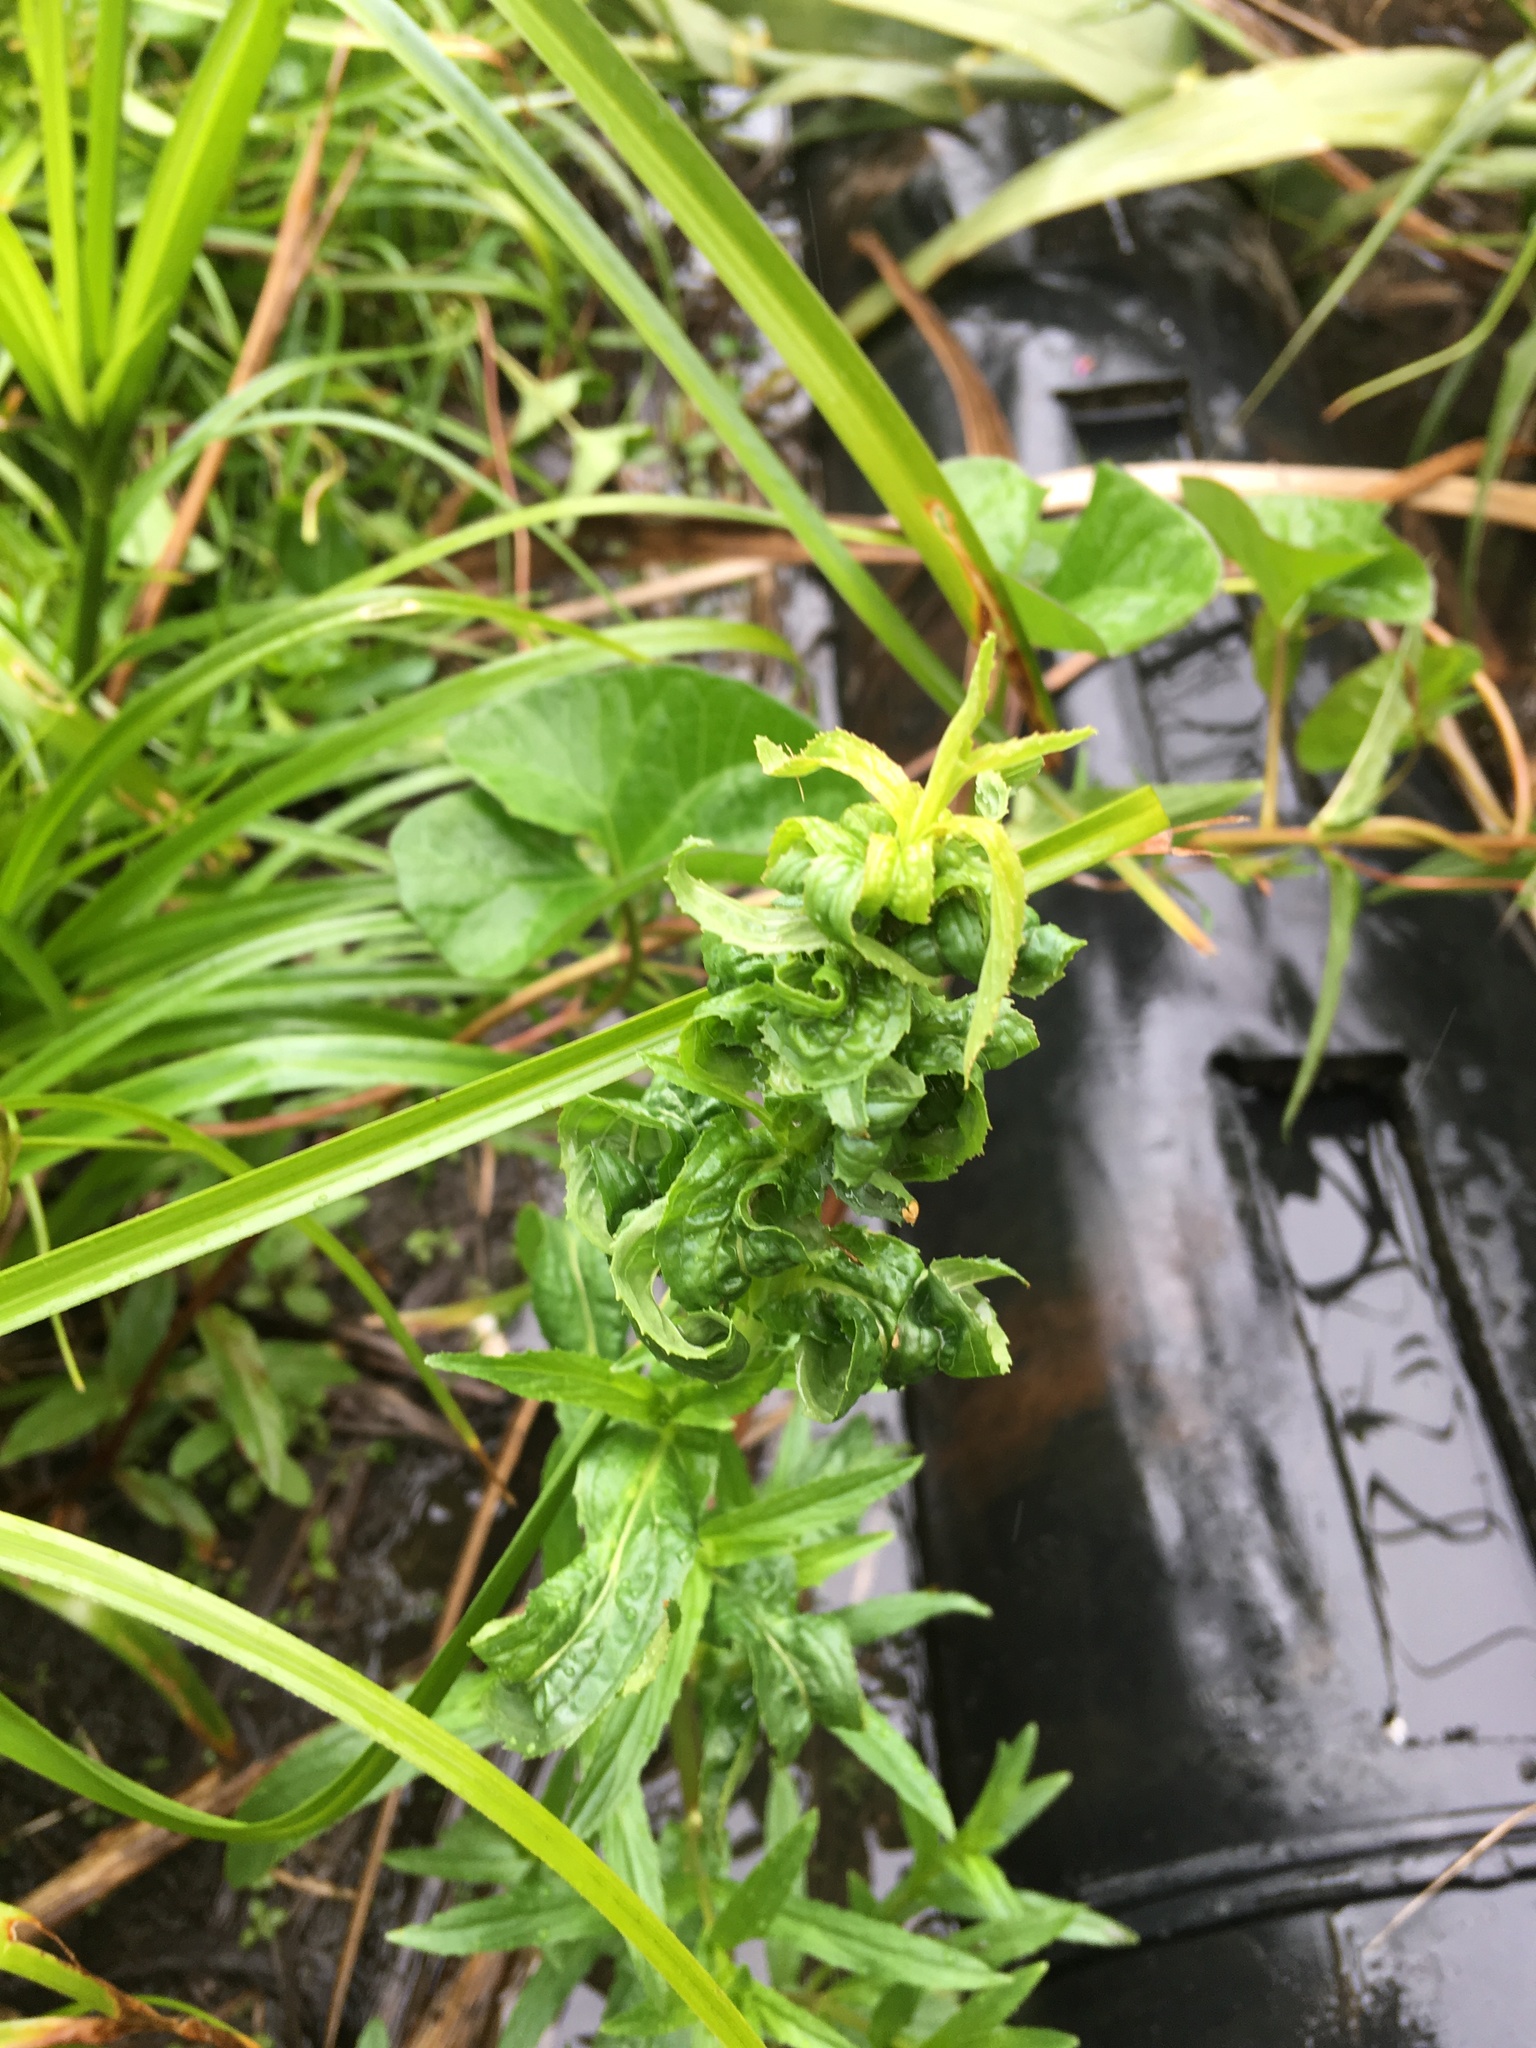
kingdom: Plantae
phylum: Tracheophyta
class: Magnoliopsida
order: Myrtales
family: Onagraceae
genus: Epilobium
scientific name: Epilobium ciliatum
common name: American willowherb
